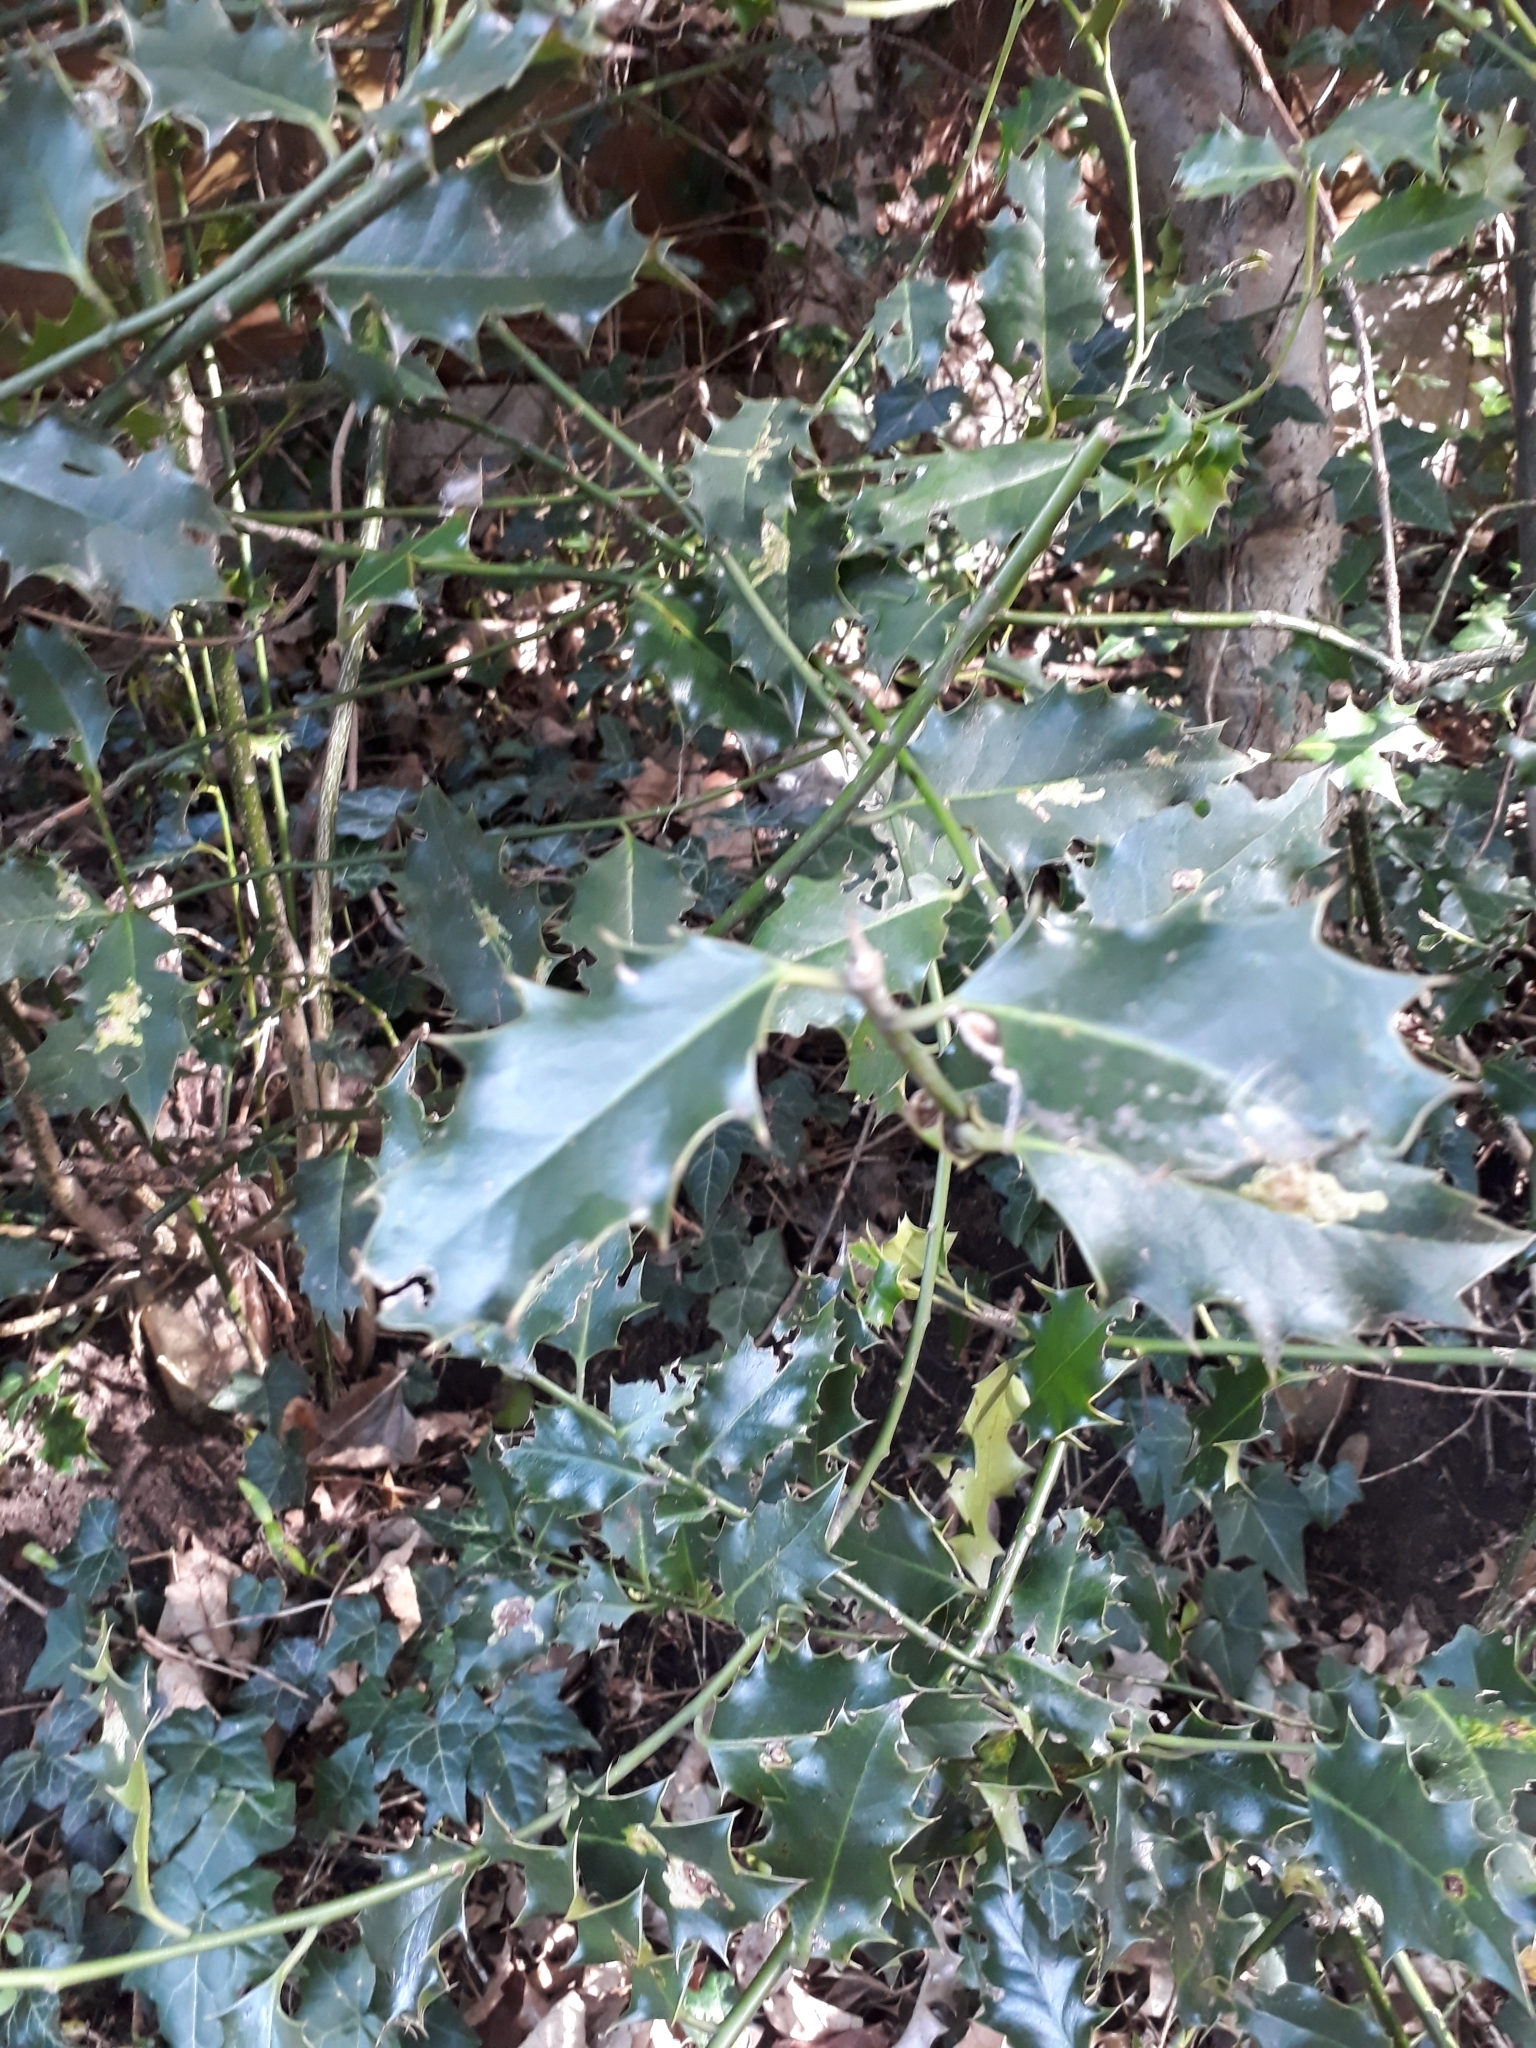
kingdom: Plantae
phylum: Tracheophyta
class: Magnoliopsida
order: Aquifoliales
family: Aquifoliaceae
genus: Ilex
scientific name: Ilex aquifolium
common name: English holly
